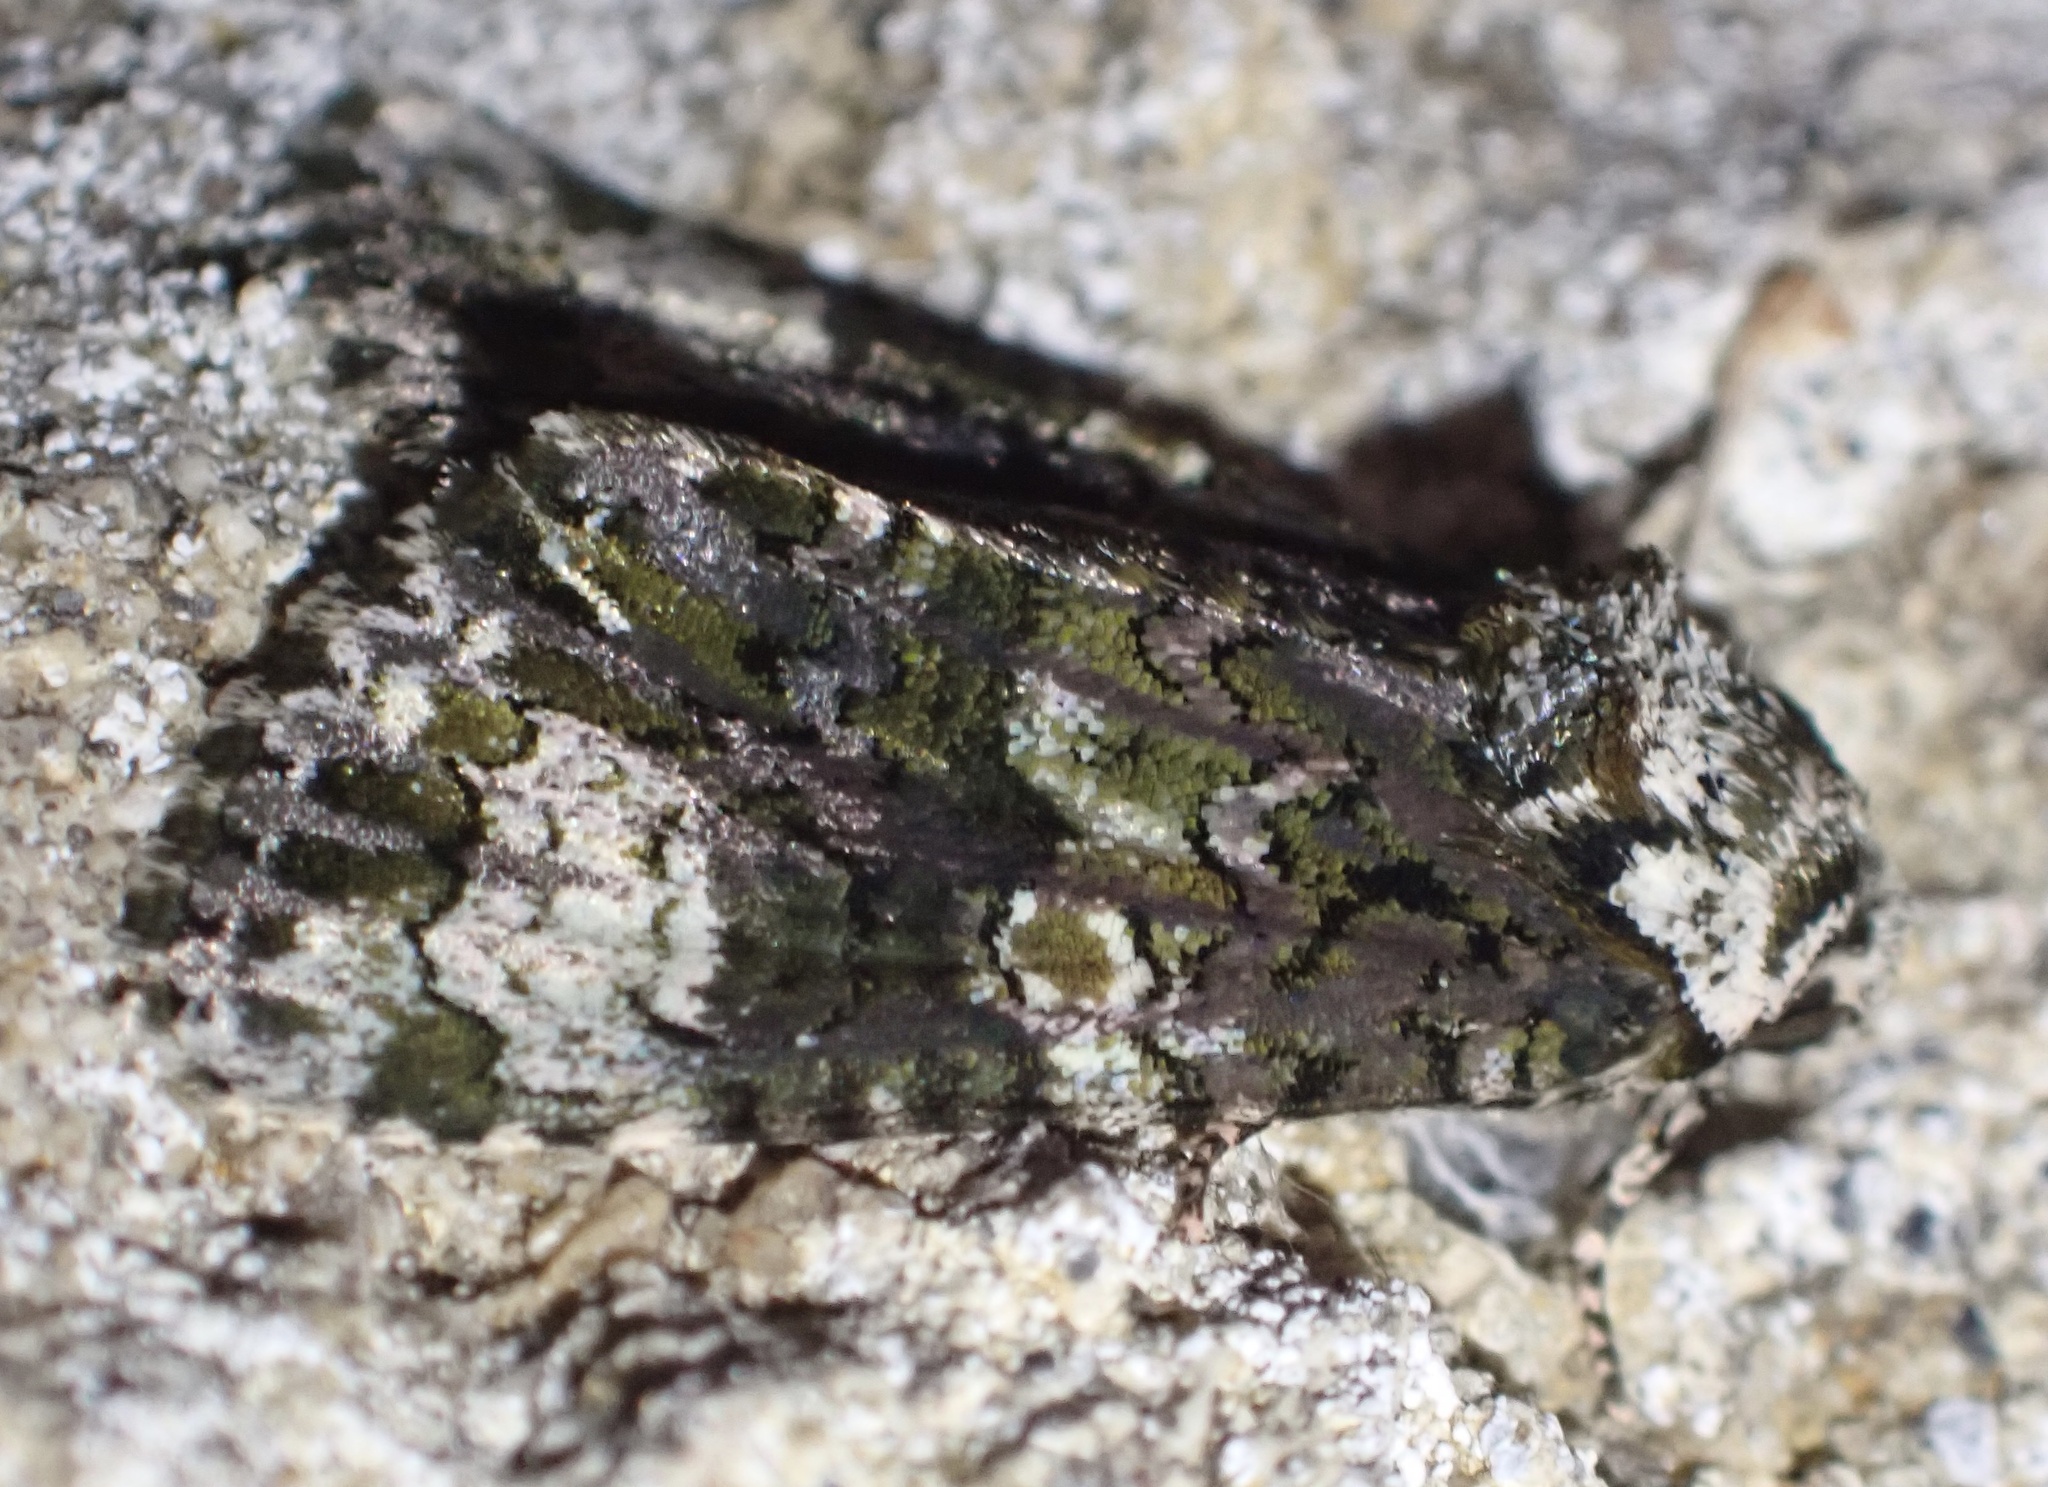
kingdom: Animalia
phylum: Arthropoda
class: Insecta
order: Lepidoptera
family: Noctuidae
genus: Craniophora
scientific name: Craniophora ligustri
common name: Coronet
